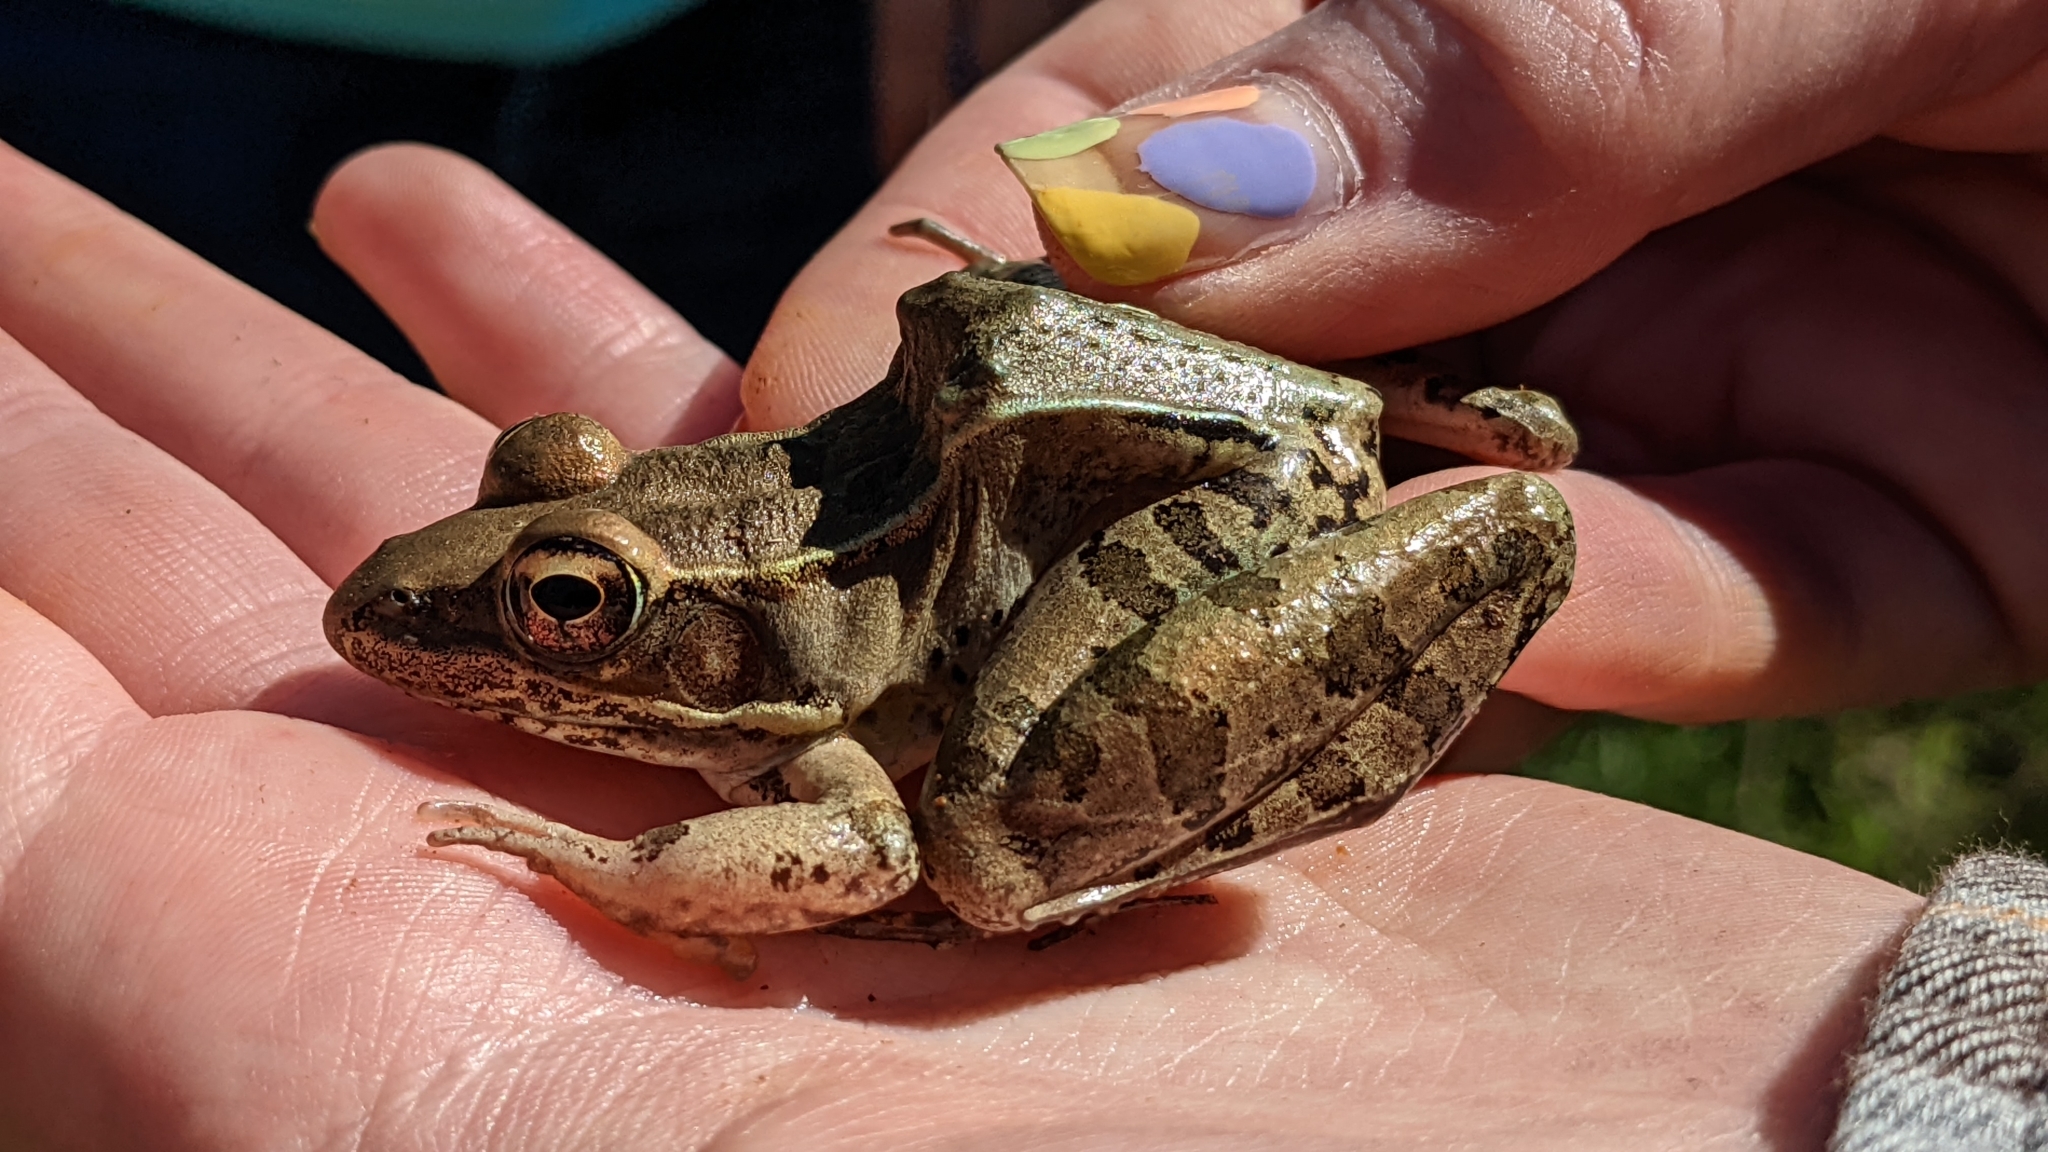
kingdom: Animalia
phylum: Chordata
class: Amphibia
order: Anura
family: Ranidae
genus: Lithobates
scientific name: Lithobates sphenocephalus
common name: Southern leopard frog
